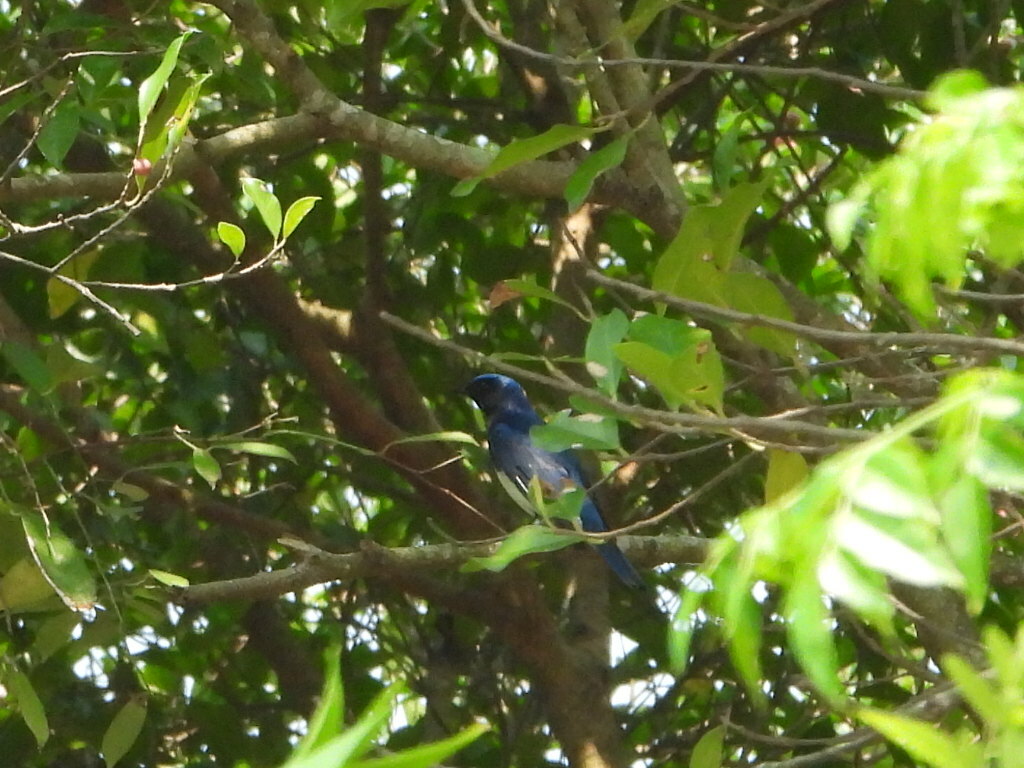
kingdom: Animalia
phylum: Chordata
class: Aves
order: Passeriformes
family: Muscicapidae
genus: Cyanoptila
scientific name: Cyanoptila cyanomelana
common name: Blue-and-white flycatcher
